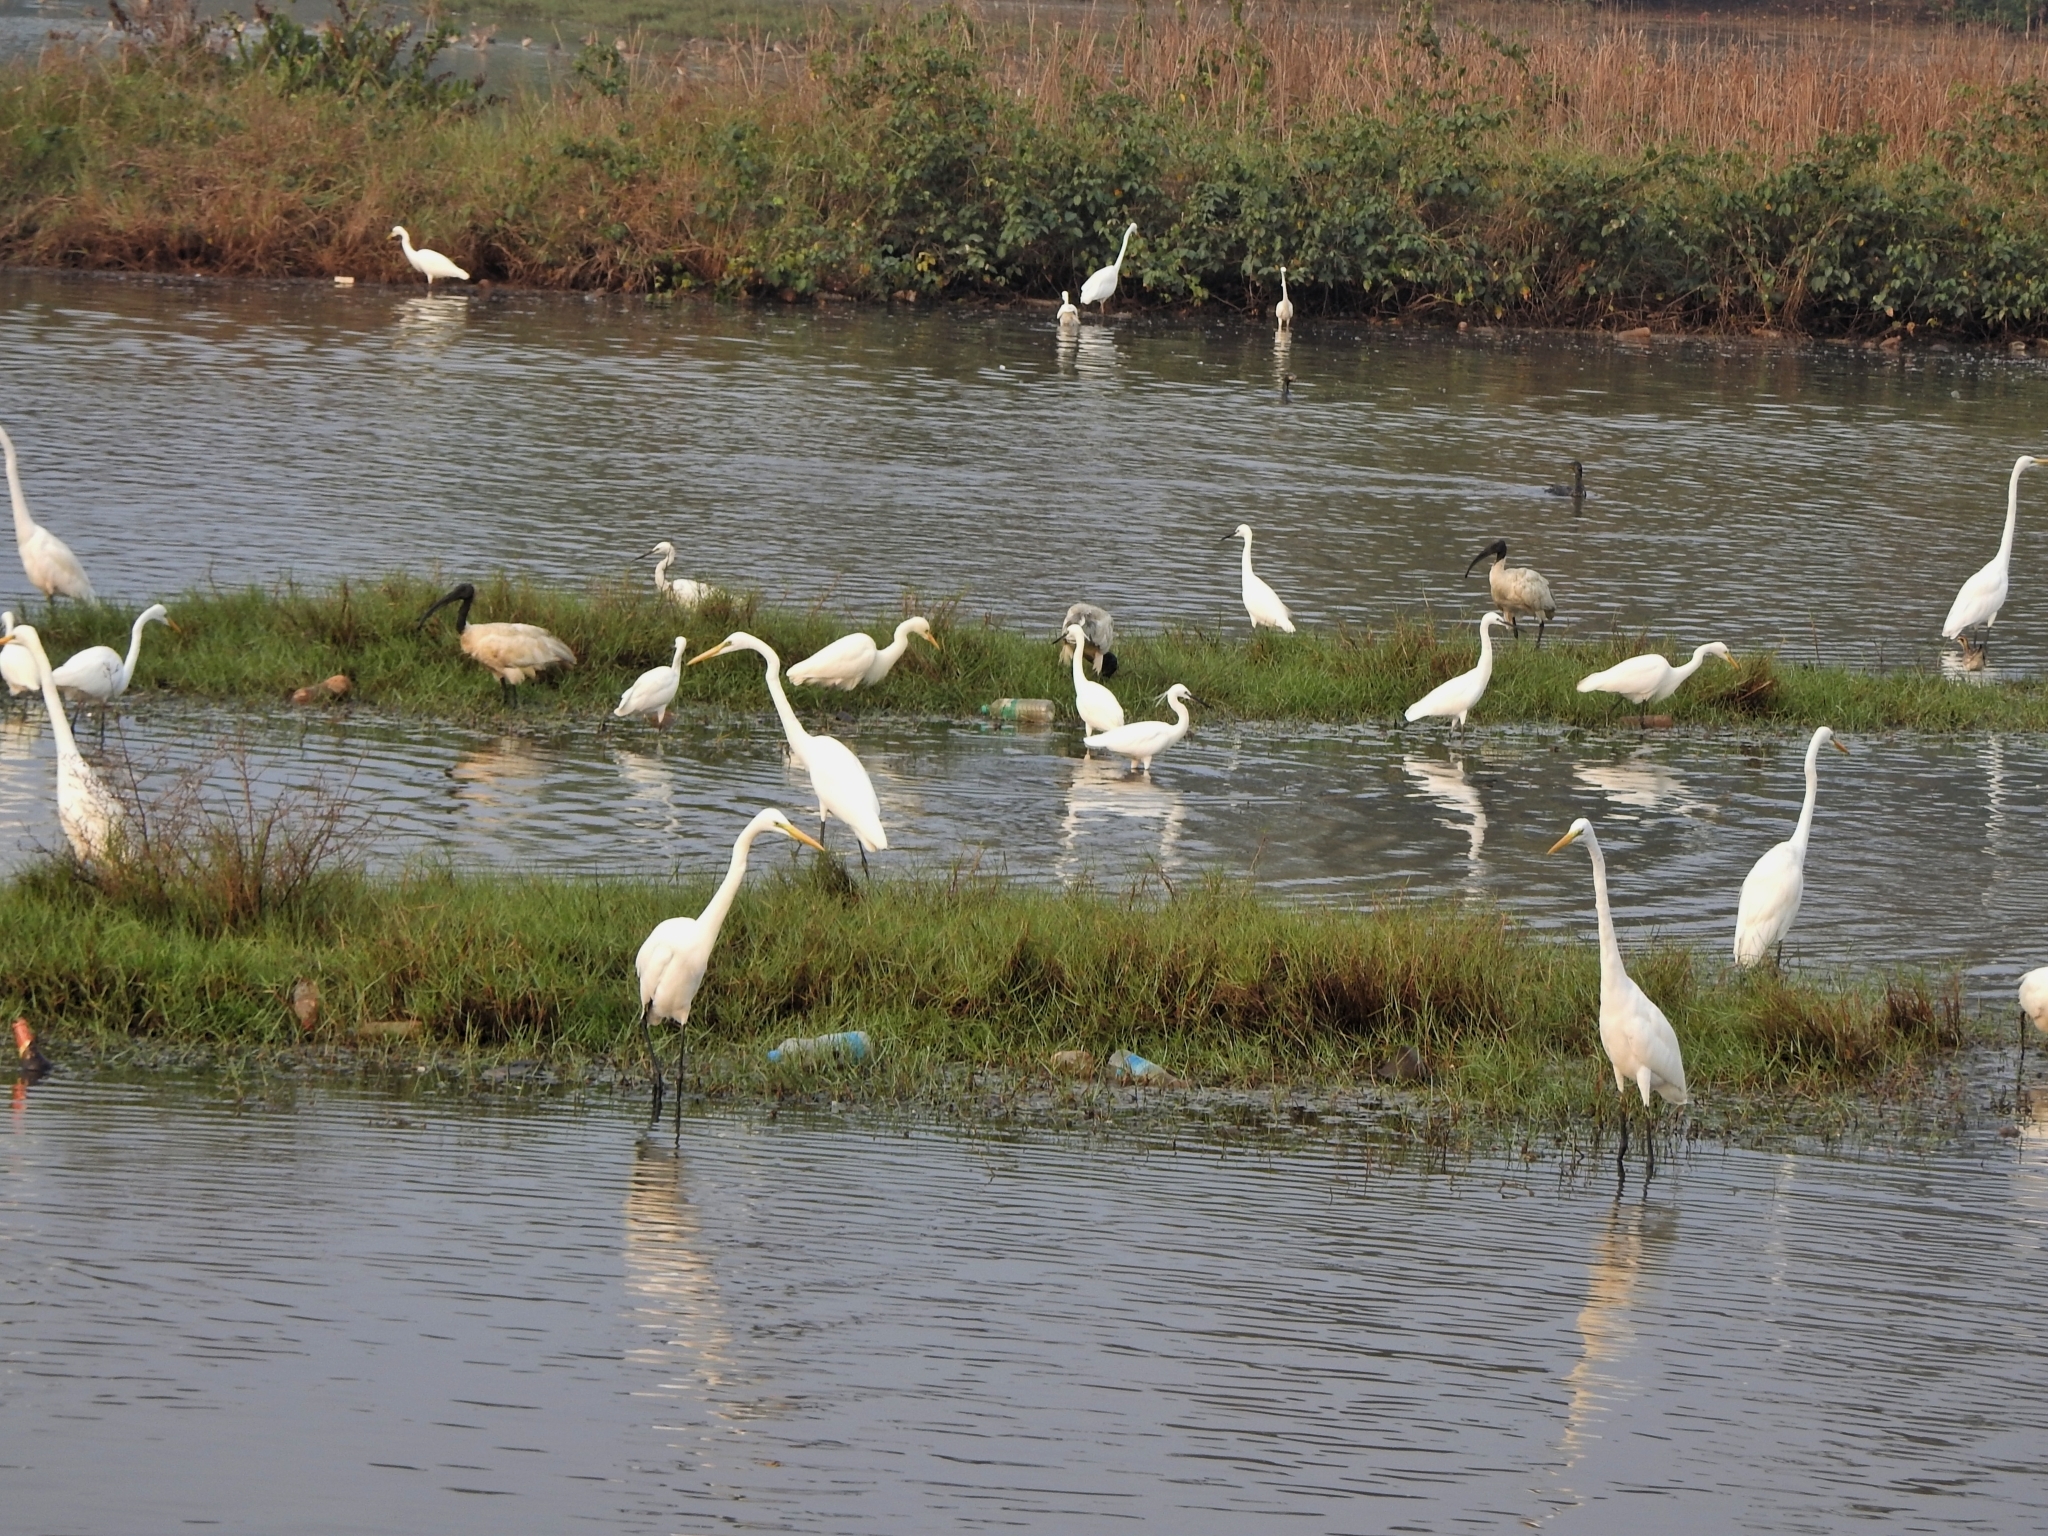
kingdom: Animalia
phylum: Chordata
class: Aves
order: Pelecaniformes
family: Ardeidae
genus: Ardea
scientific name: Ardea alba
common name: Great egret
